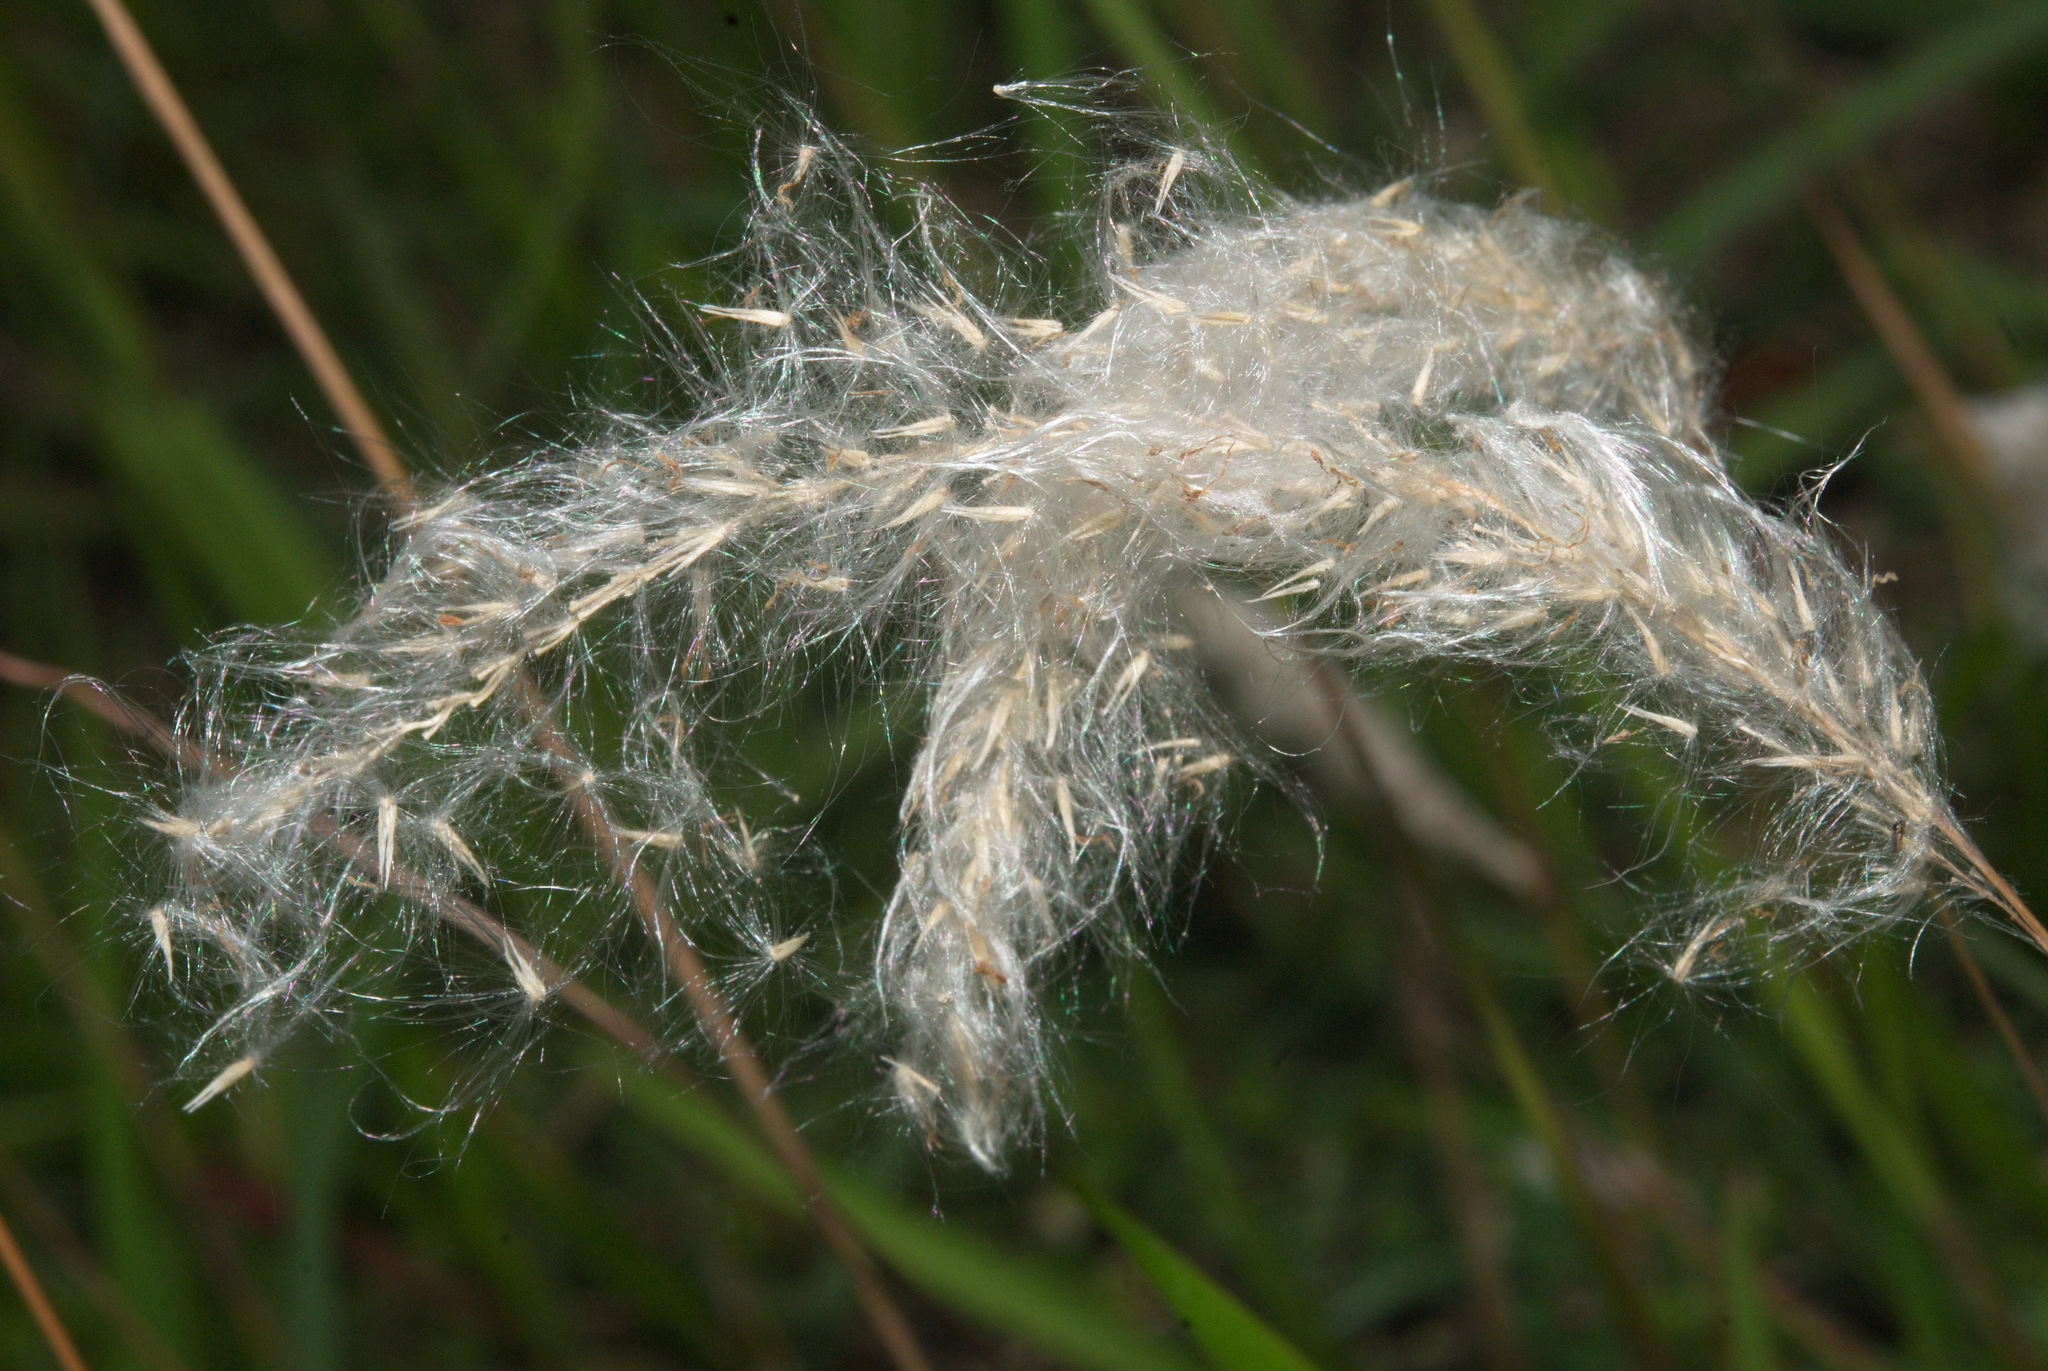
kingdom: Plantae
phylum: Tracheophyta
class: Liliopsida
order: Poales
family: Poaceae
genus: Imperata
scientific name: Imperata cylindrica
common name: Cogongrass
